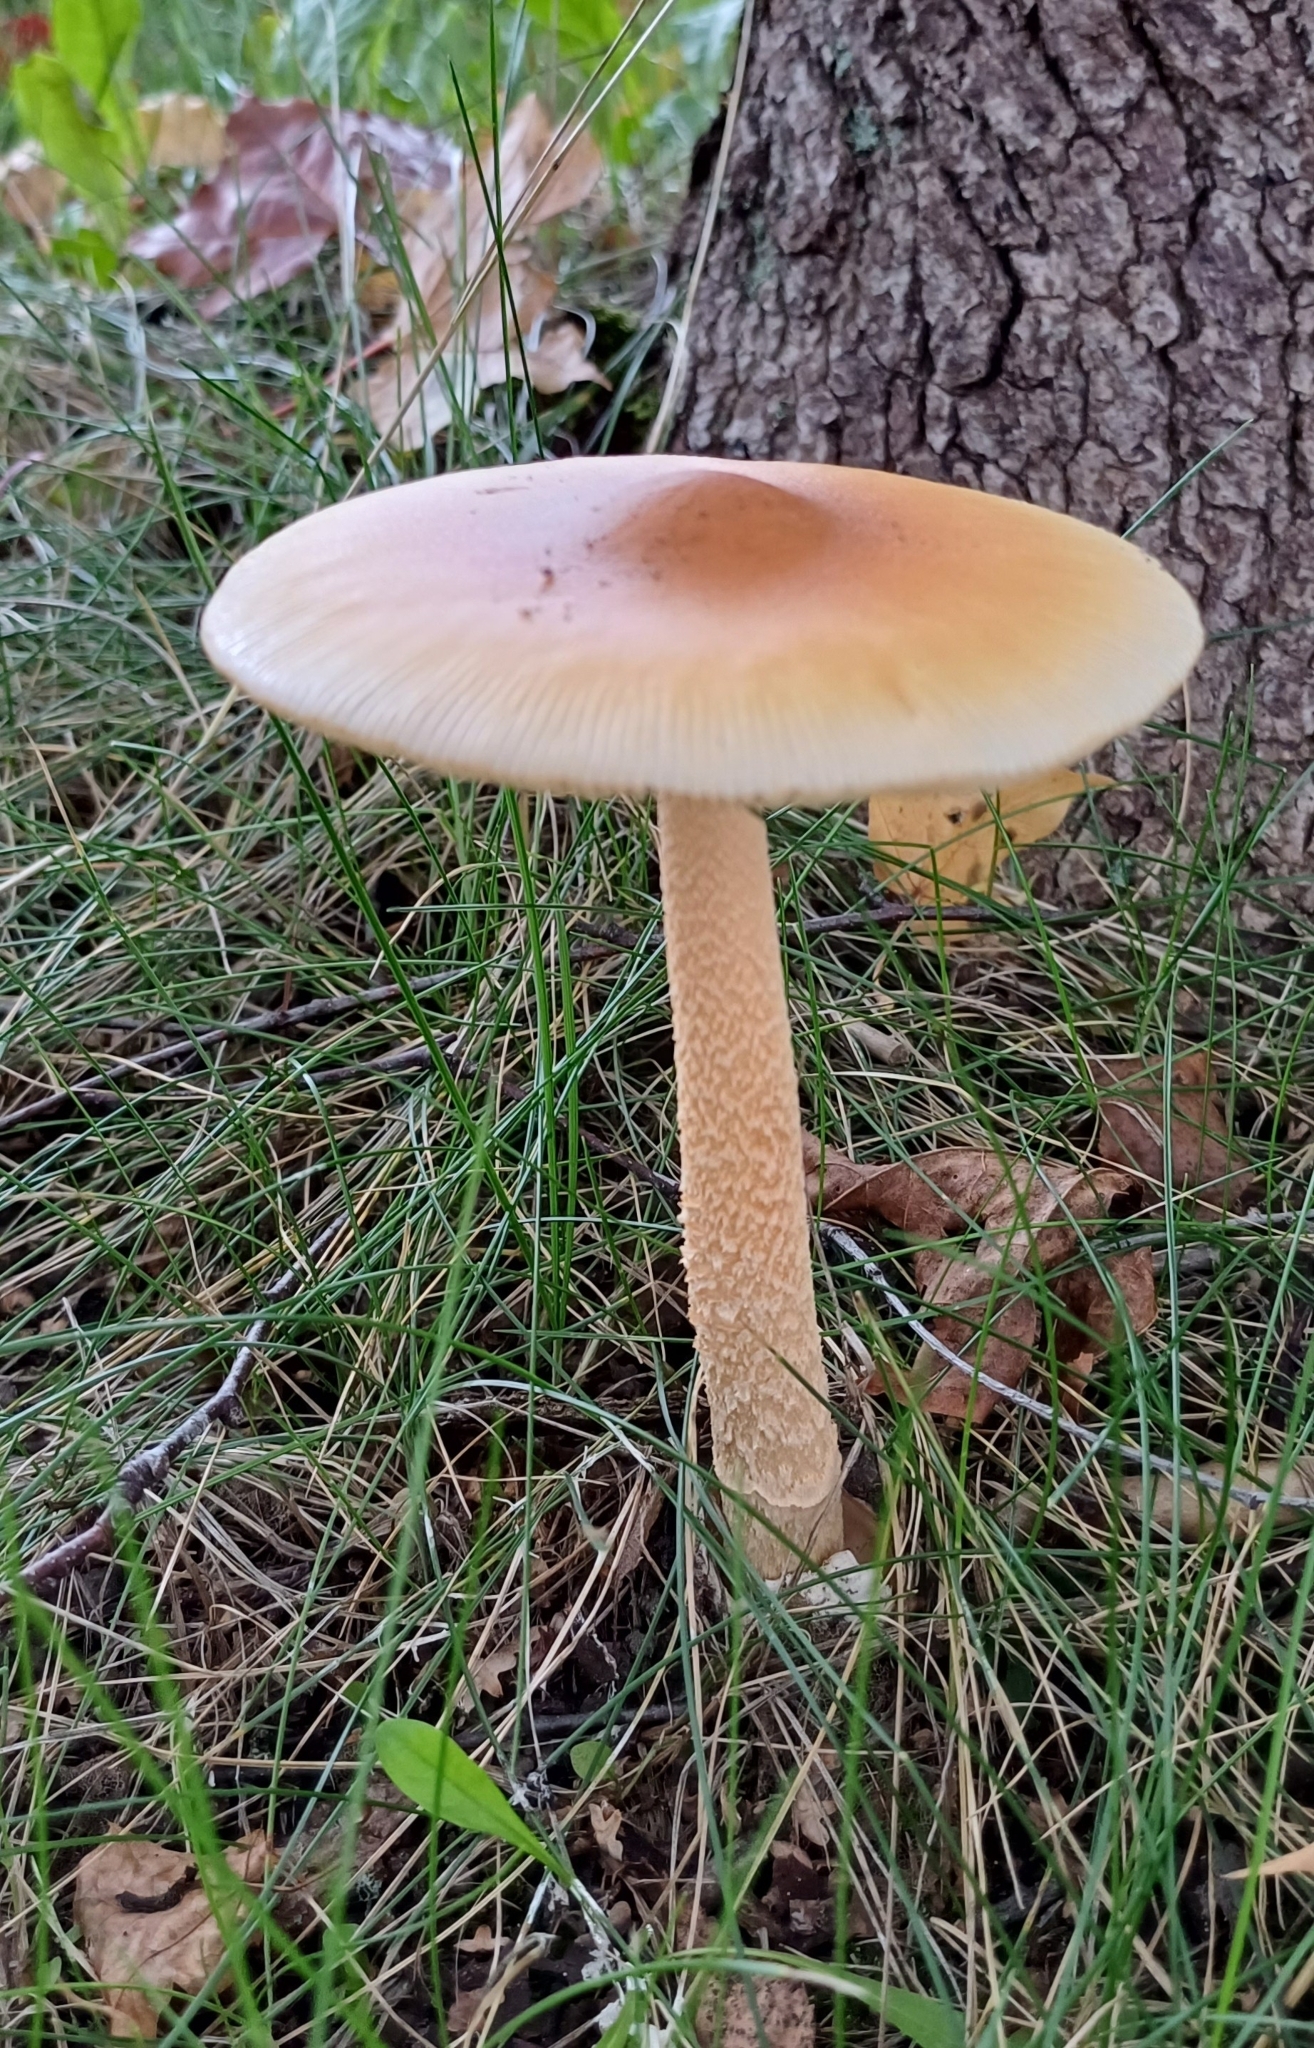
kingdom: Fungi
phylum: Basidiomycota
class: Agaricomycetes
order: Agaricales
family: Amanitaceae
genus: Amanita
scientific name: Amanita crocea
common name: Orange grisette
